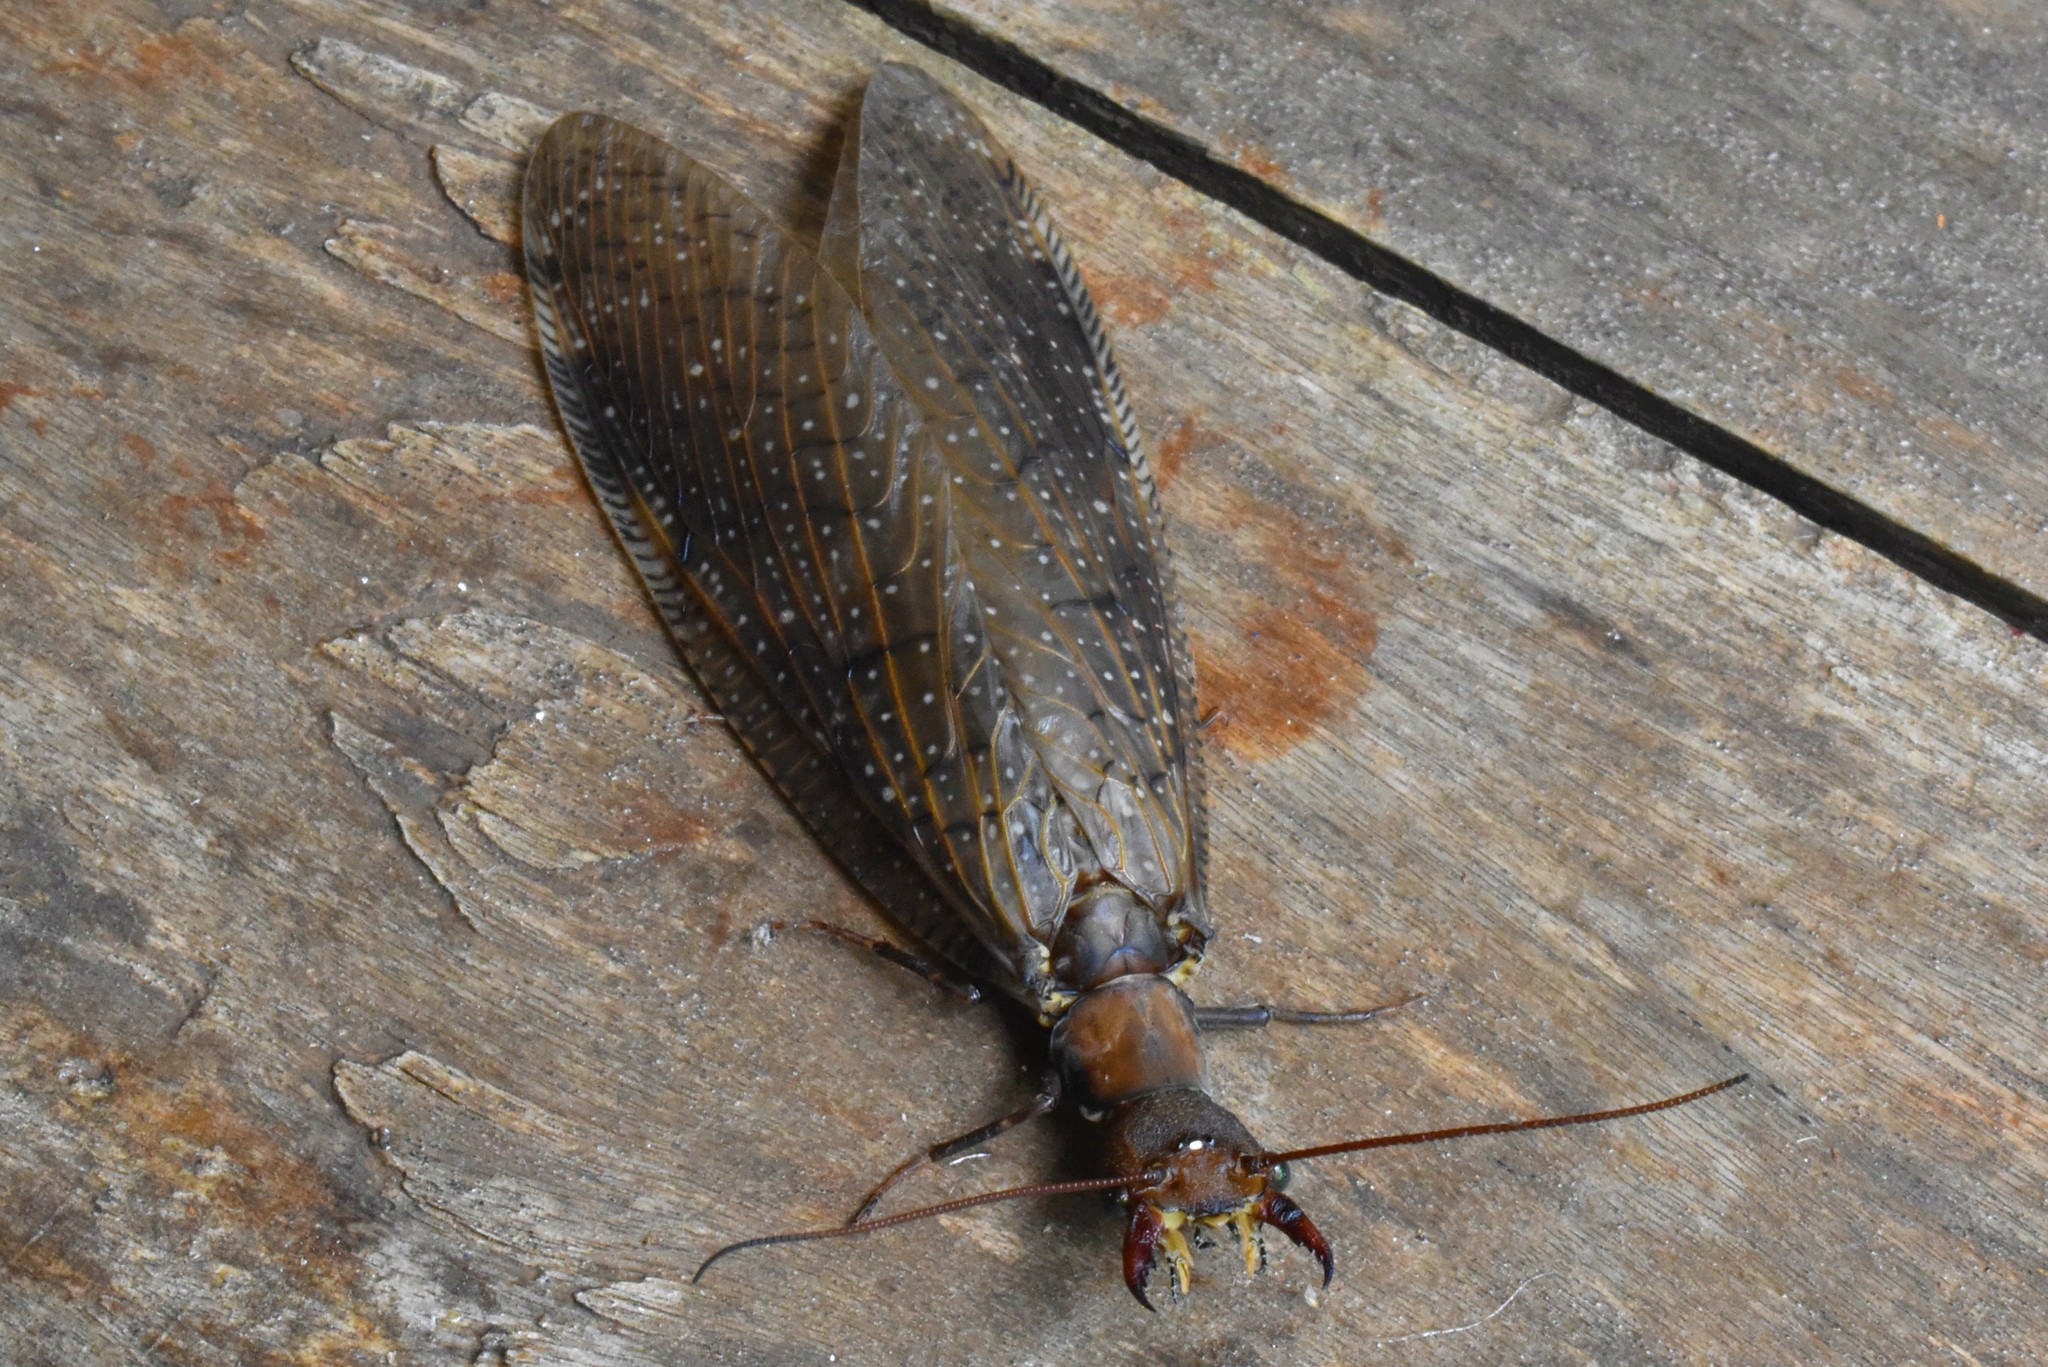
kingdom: Animalia
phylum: Arthropoda
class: Insecta
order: Megaloptera
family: Corydalidae
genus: Corydalus
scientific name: Corydalus australis
